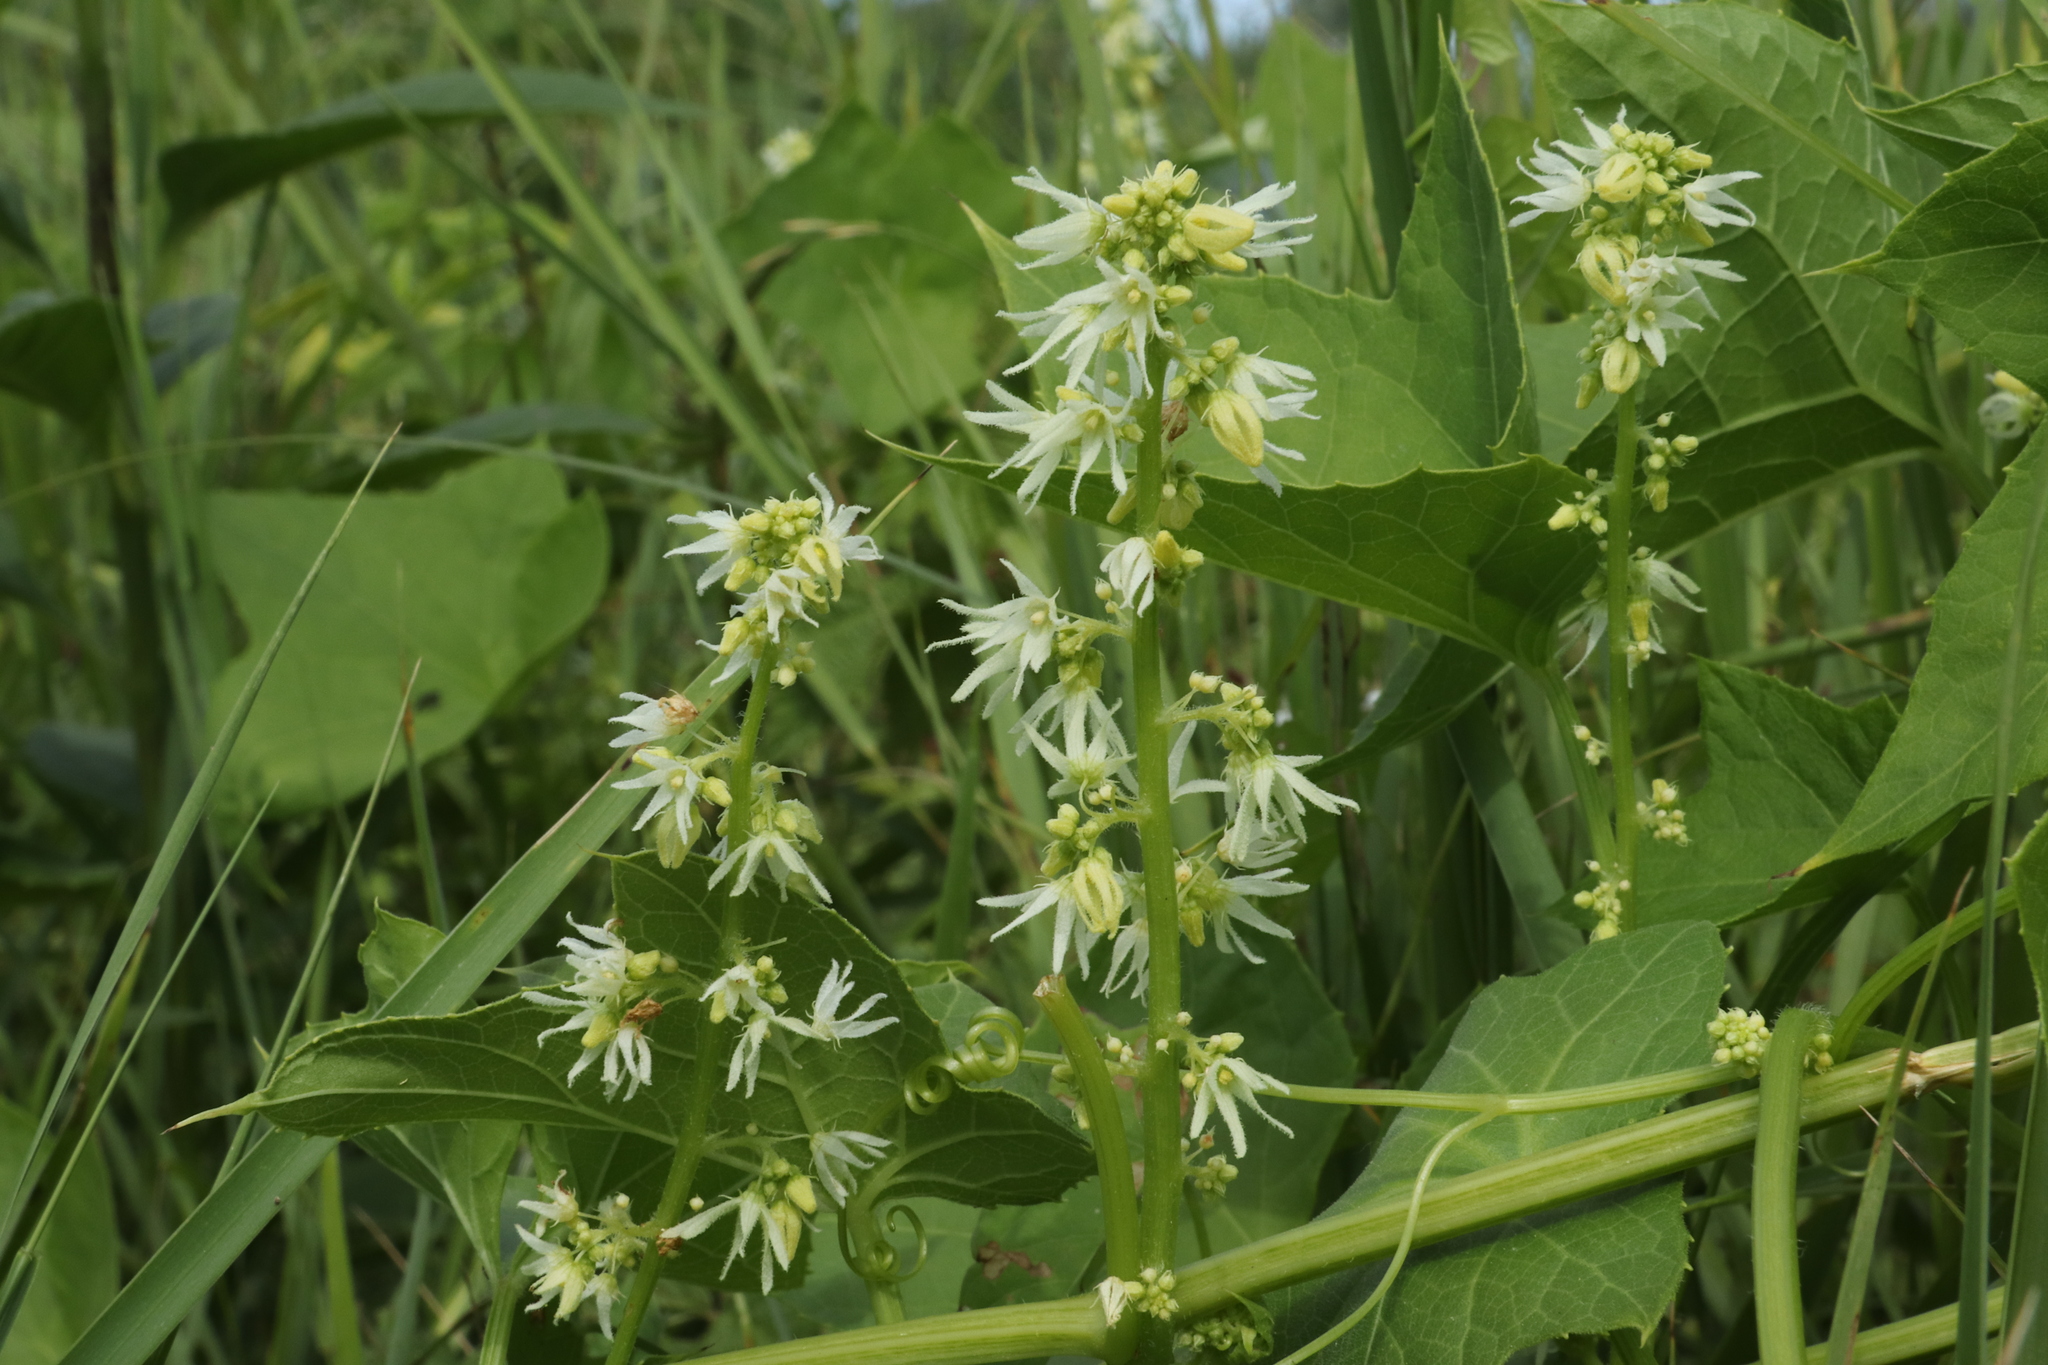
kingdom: Plantae
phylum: Tracheophyta
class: Magnoliopsida
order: Cucurbitales
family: Cucurbitaceae
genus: Echinocystis
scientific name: Echinocystis lobata
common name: Wild cucumber
